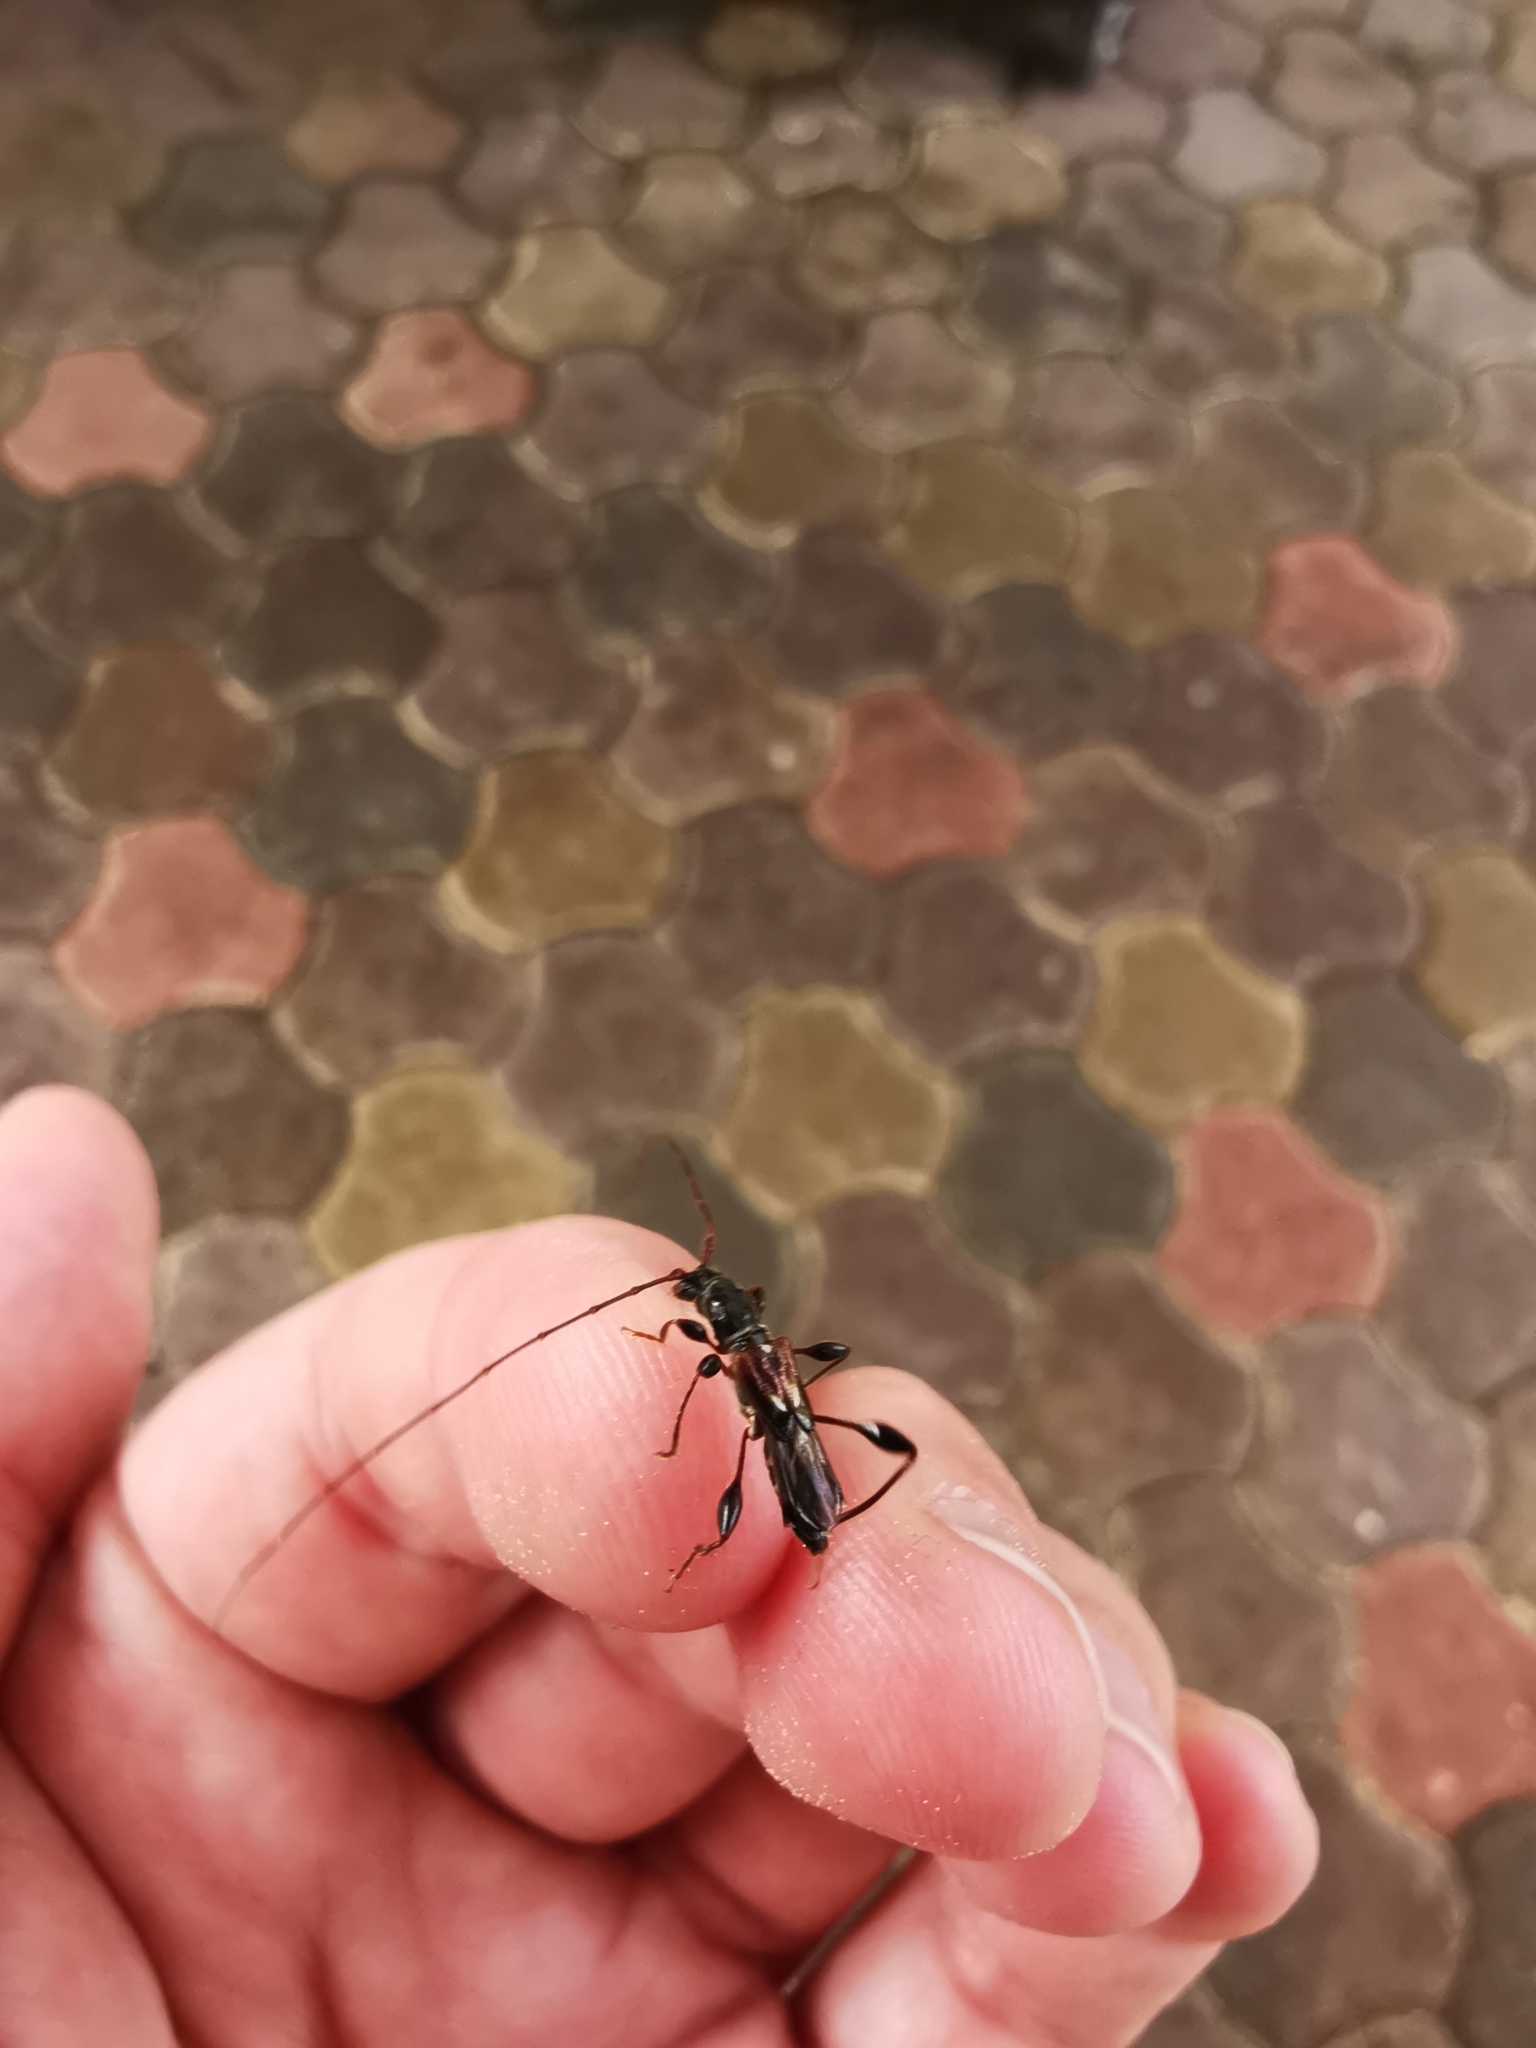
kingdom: Animalia
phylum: Arthropoda
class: Insecta
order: Coleoptera
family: Cerambycidae
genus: Molorchus
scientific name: Molorchus minor
